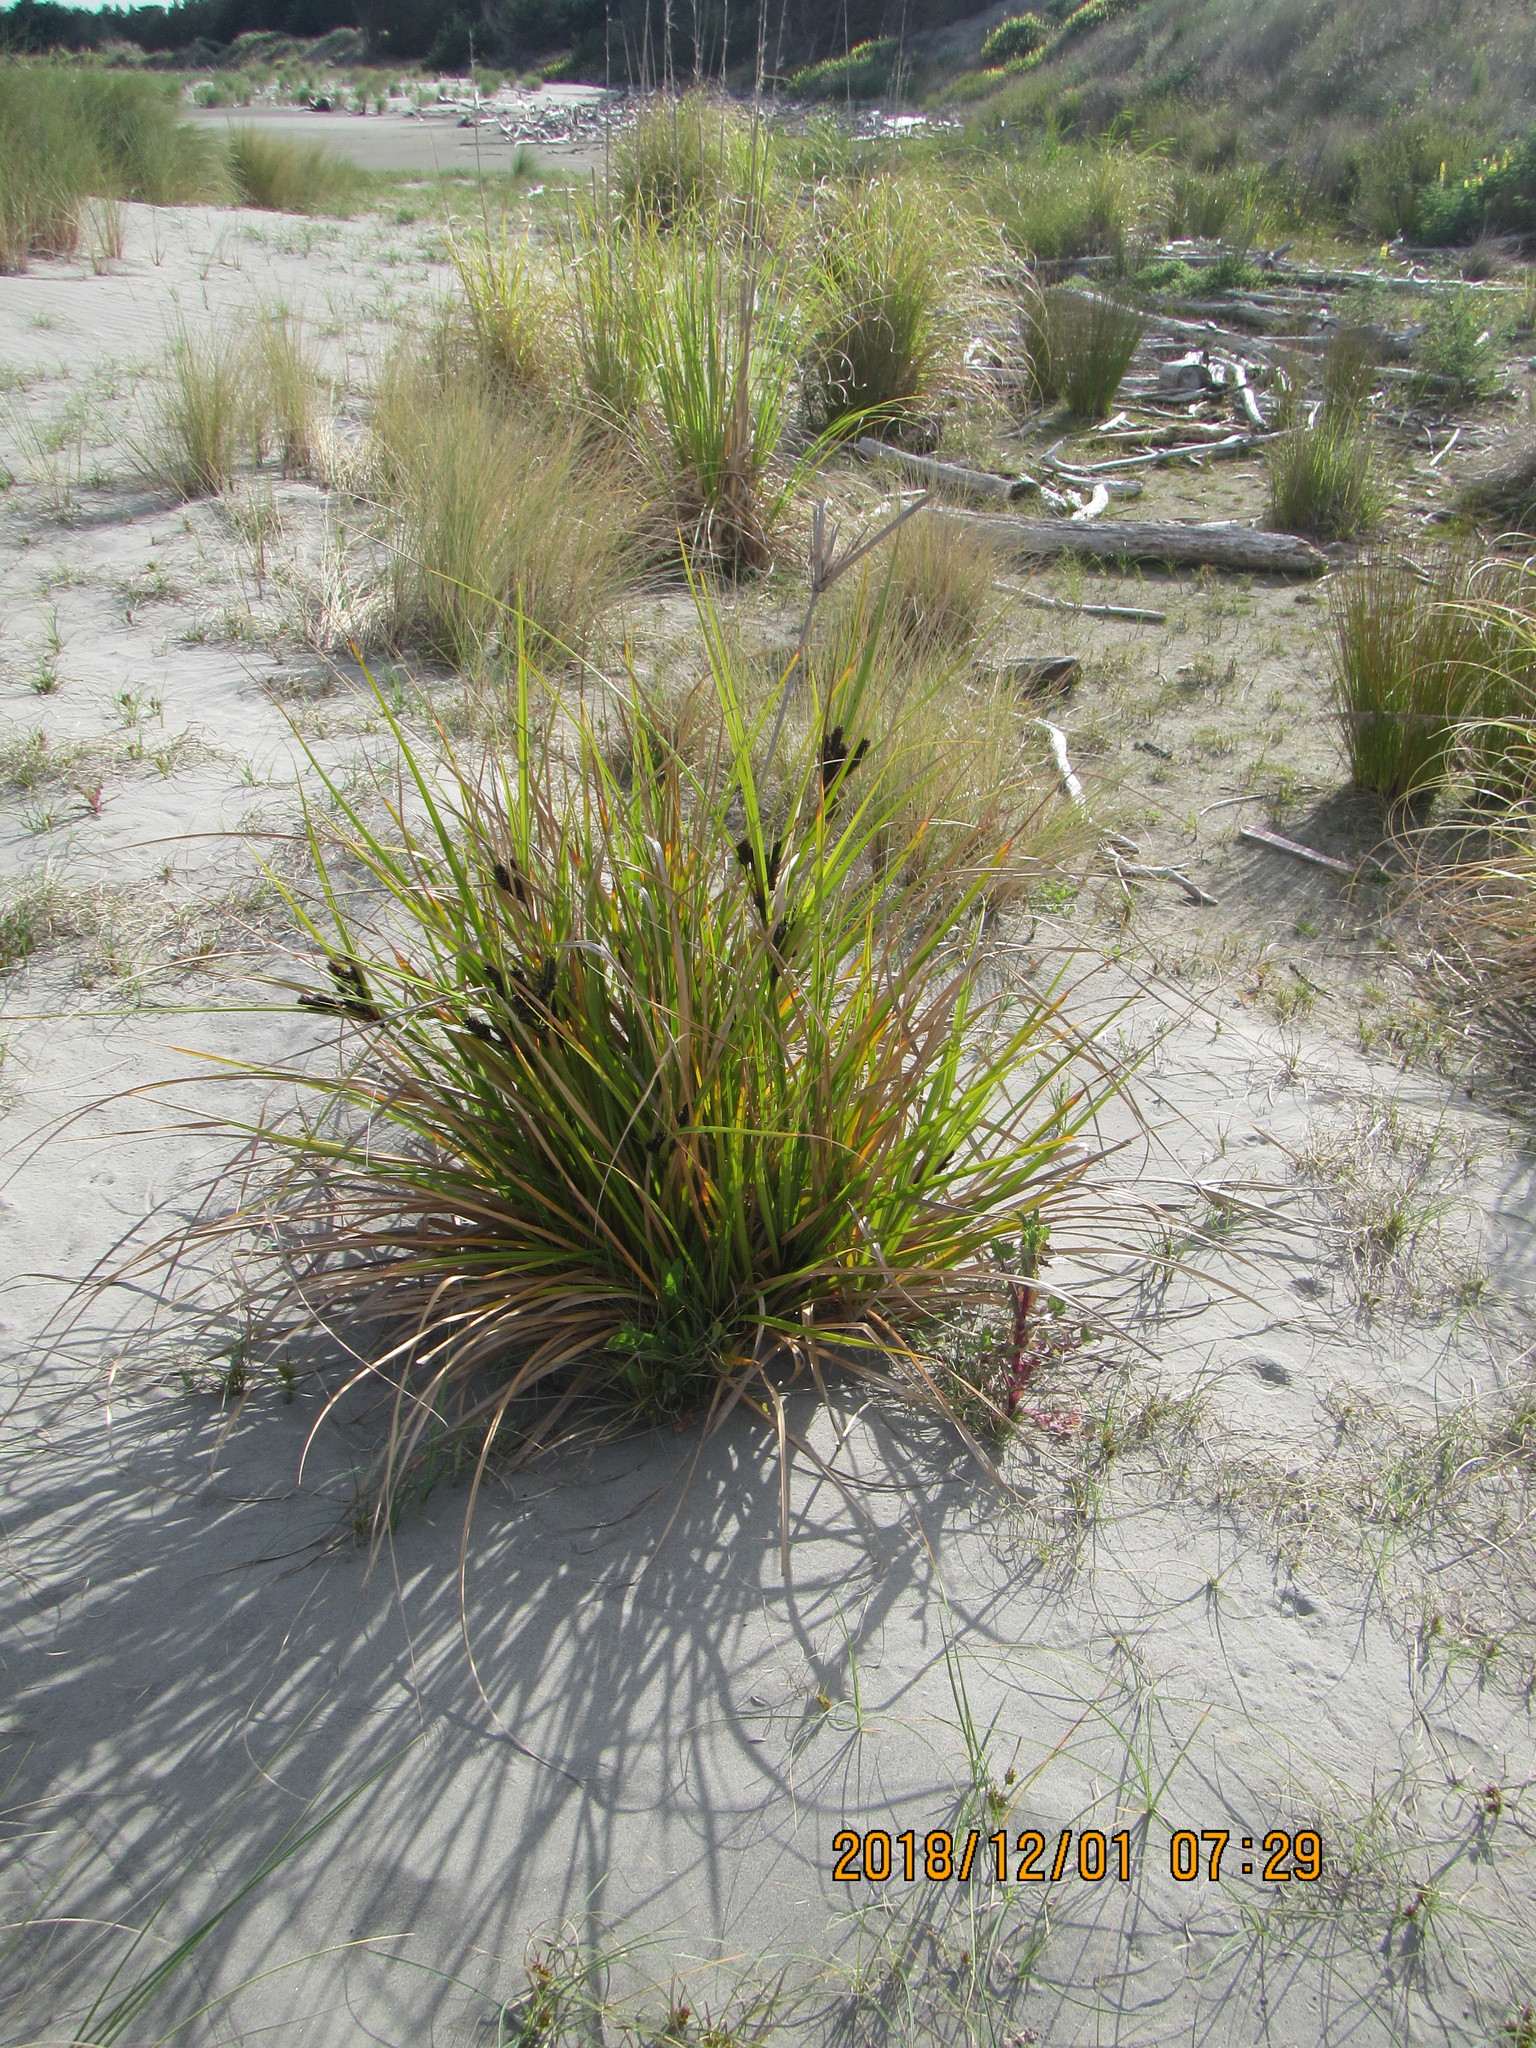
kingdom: Plantae
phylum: Tracheophyta
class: Liliopsida
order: Poales
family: Cyperaceae
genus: Cyperus
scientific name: Cyperus ustulatus
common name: Giant umbrella-sedge
